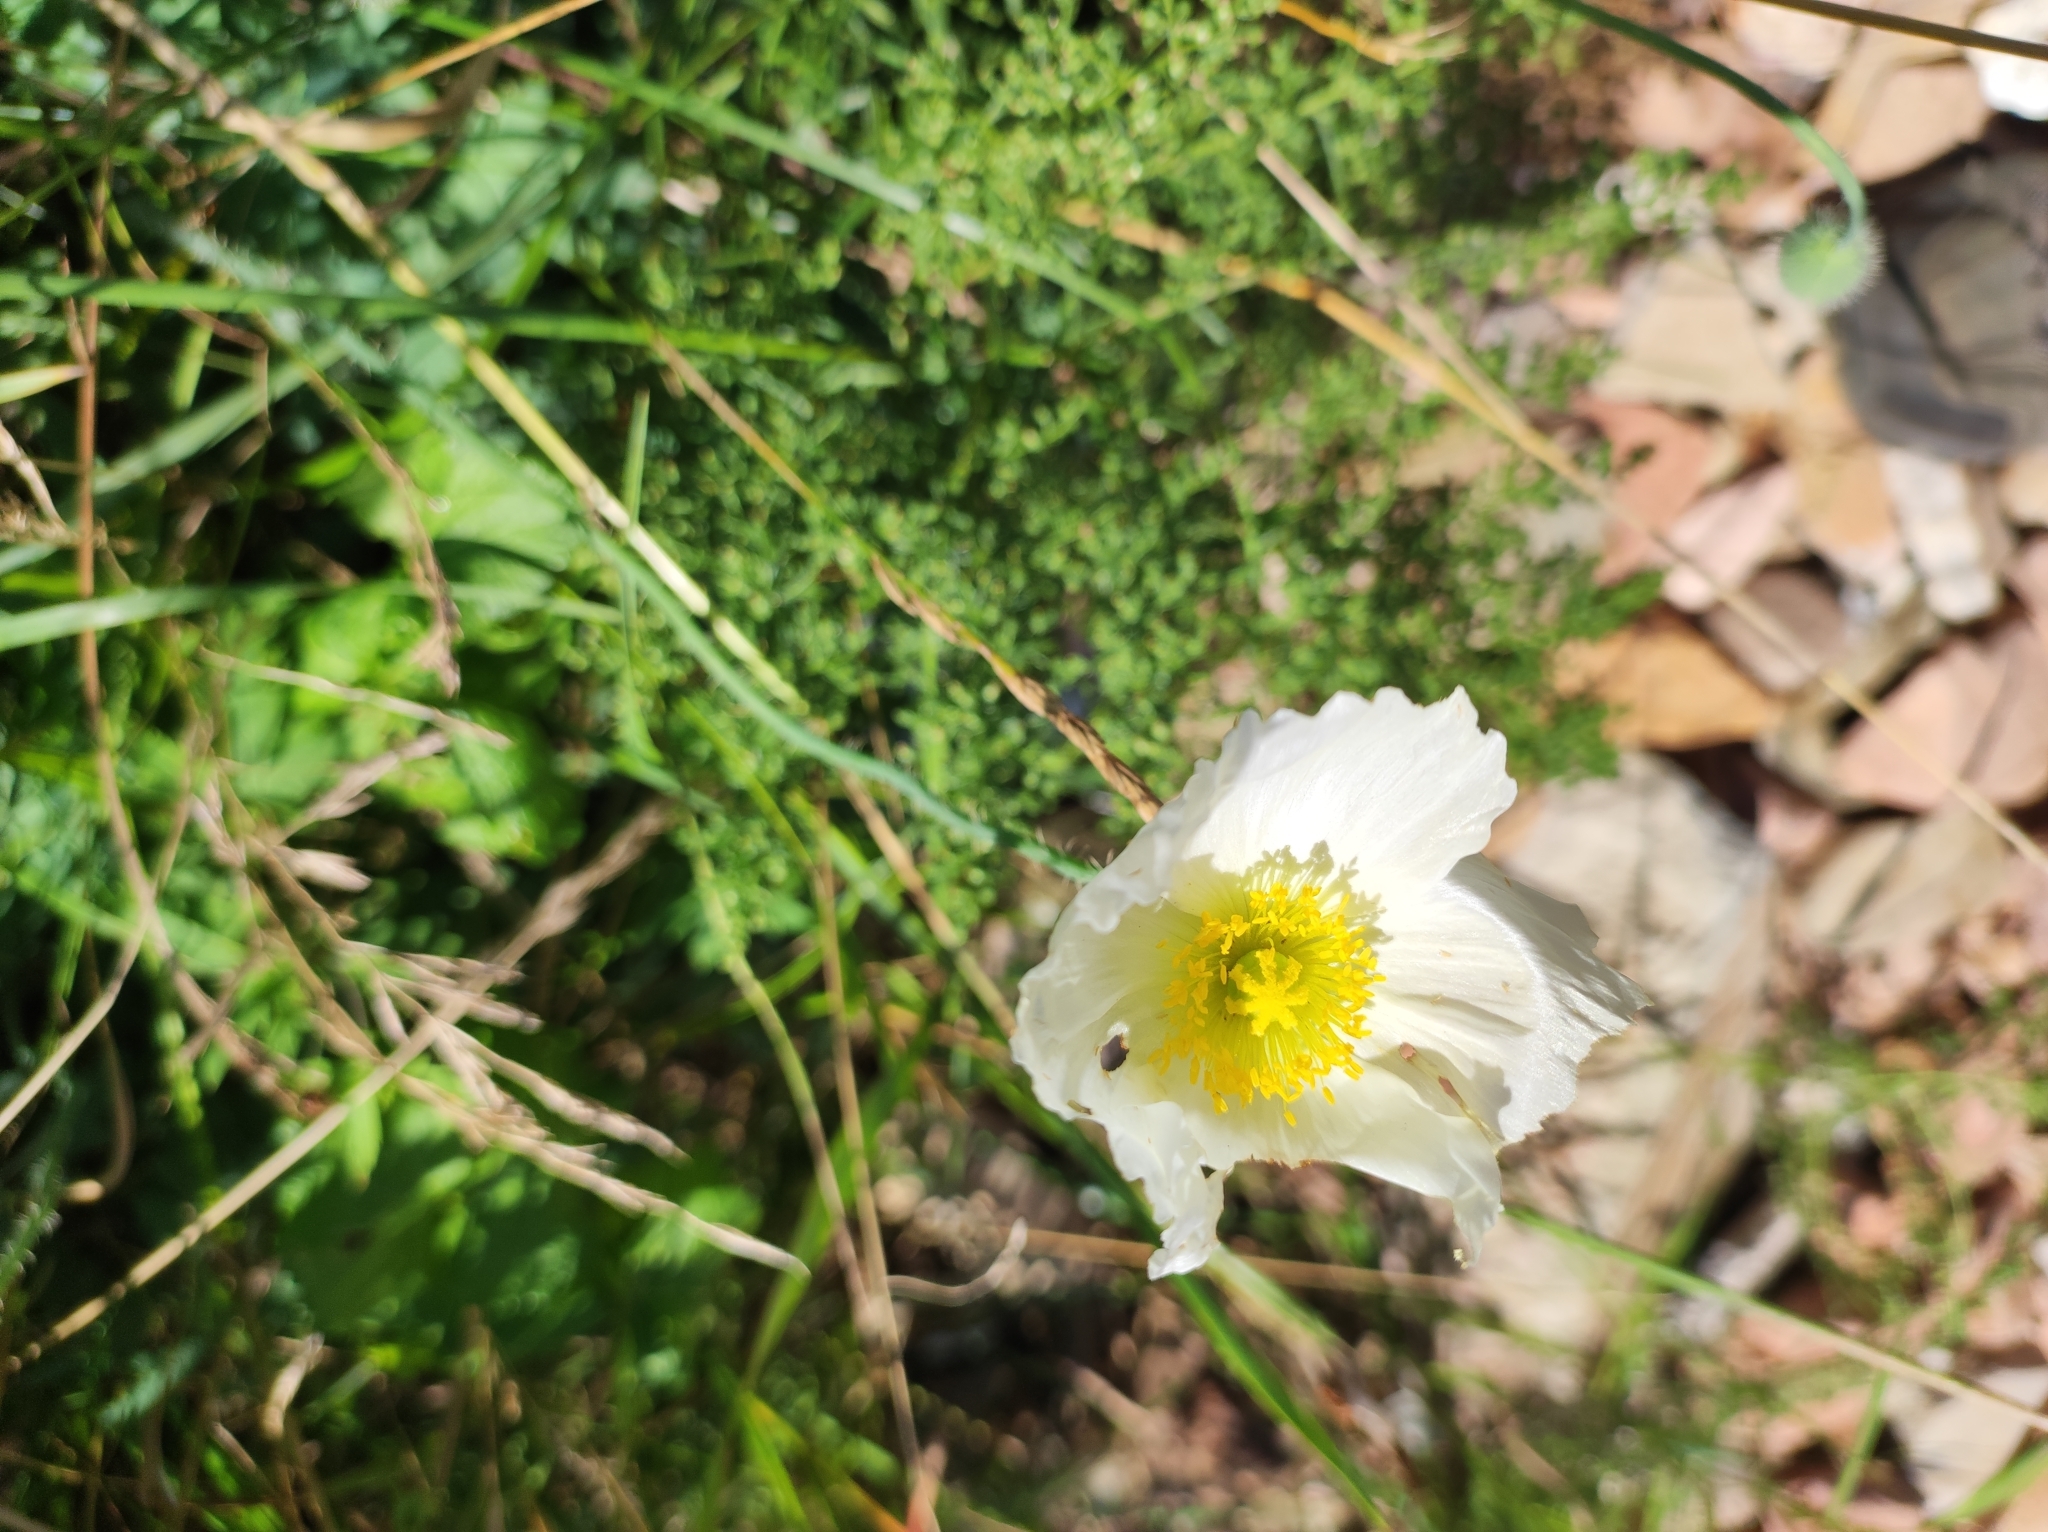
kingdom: Plantae
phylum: Tracheophyta
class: Magnoliopsida
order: Ranunculales
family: Papaveraceae
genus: Papaver
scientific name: Papaver sokolovskajae
